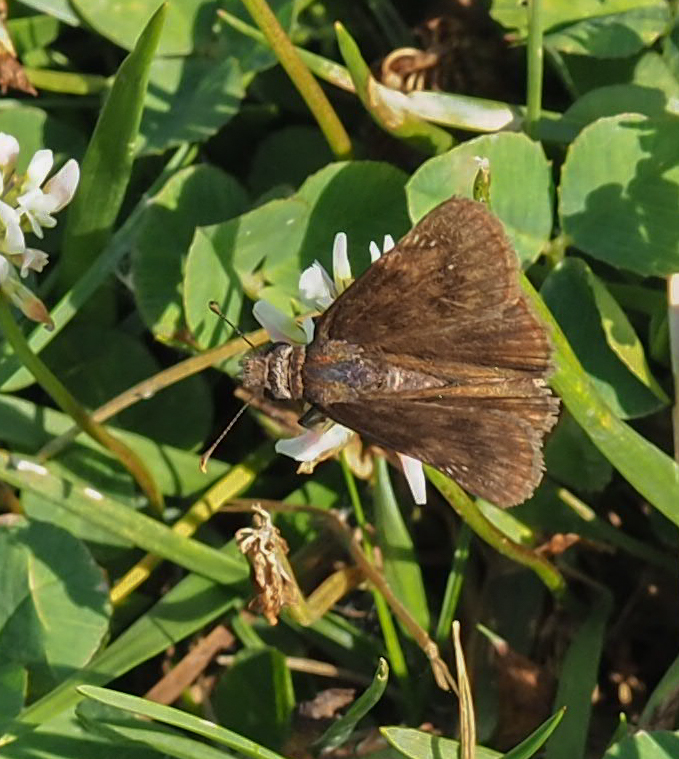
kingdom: Animalia
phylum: Arthropoda
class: Insecta
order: Lepidoptera
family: Hesperiidae
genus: Erynnis
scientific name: Erynnis baptisiae
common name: Wild indigo duskywing
